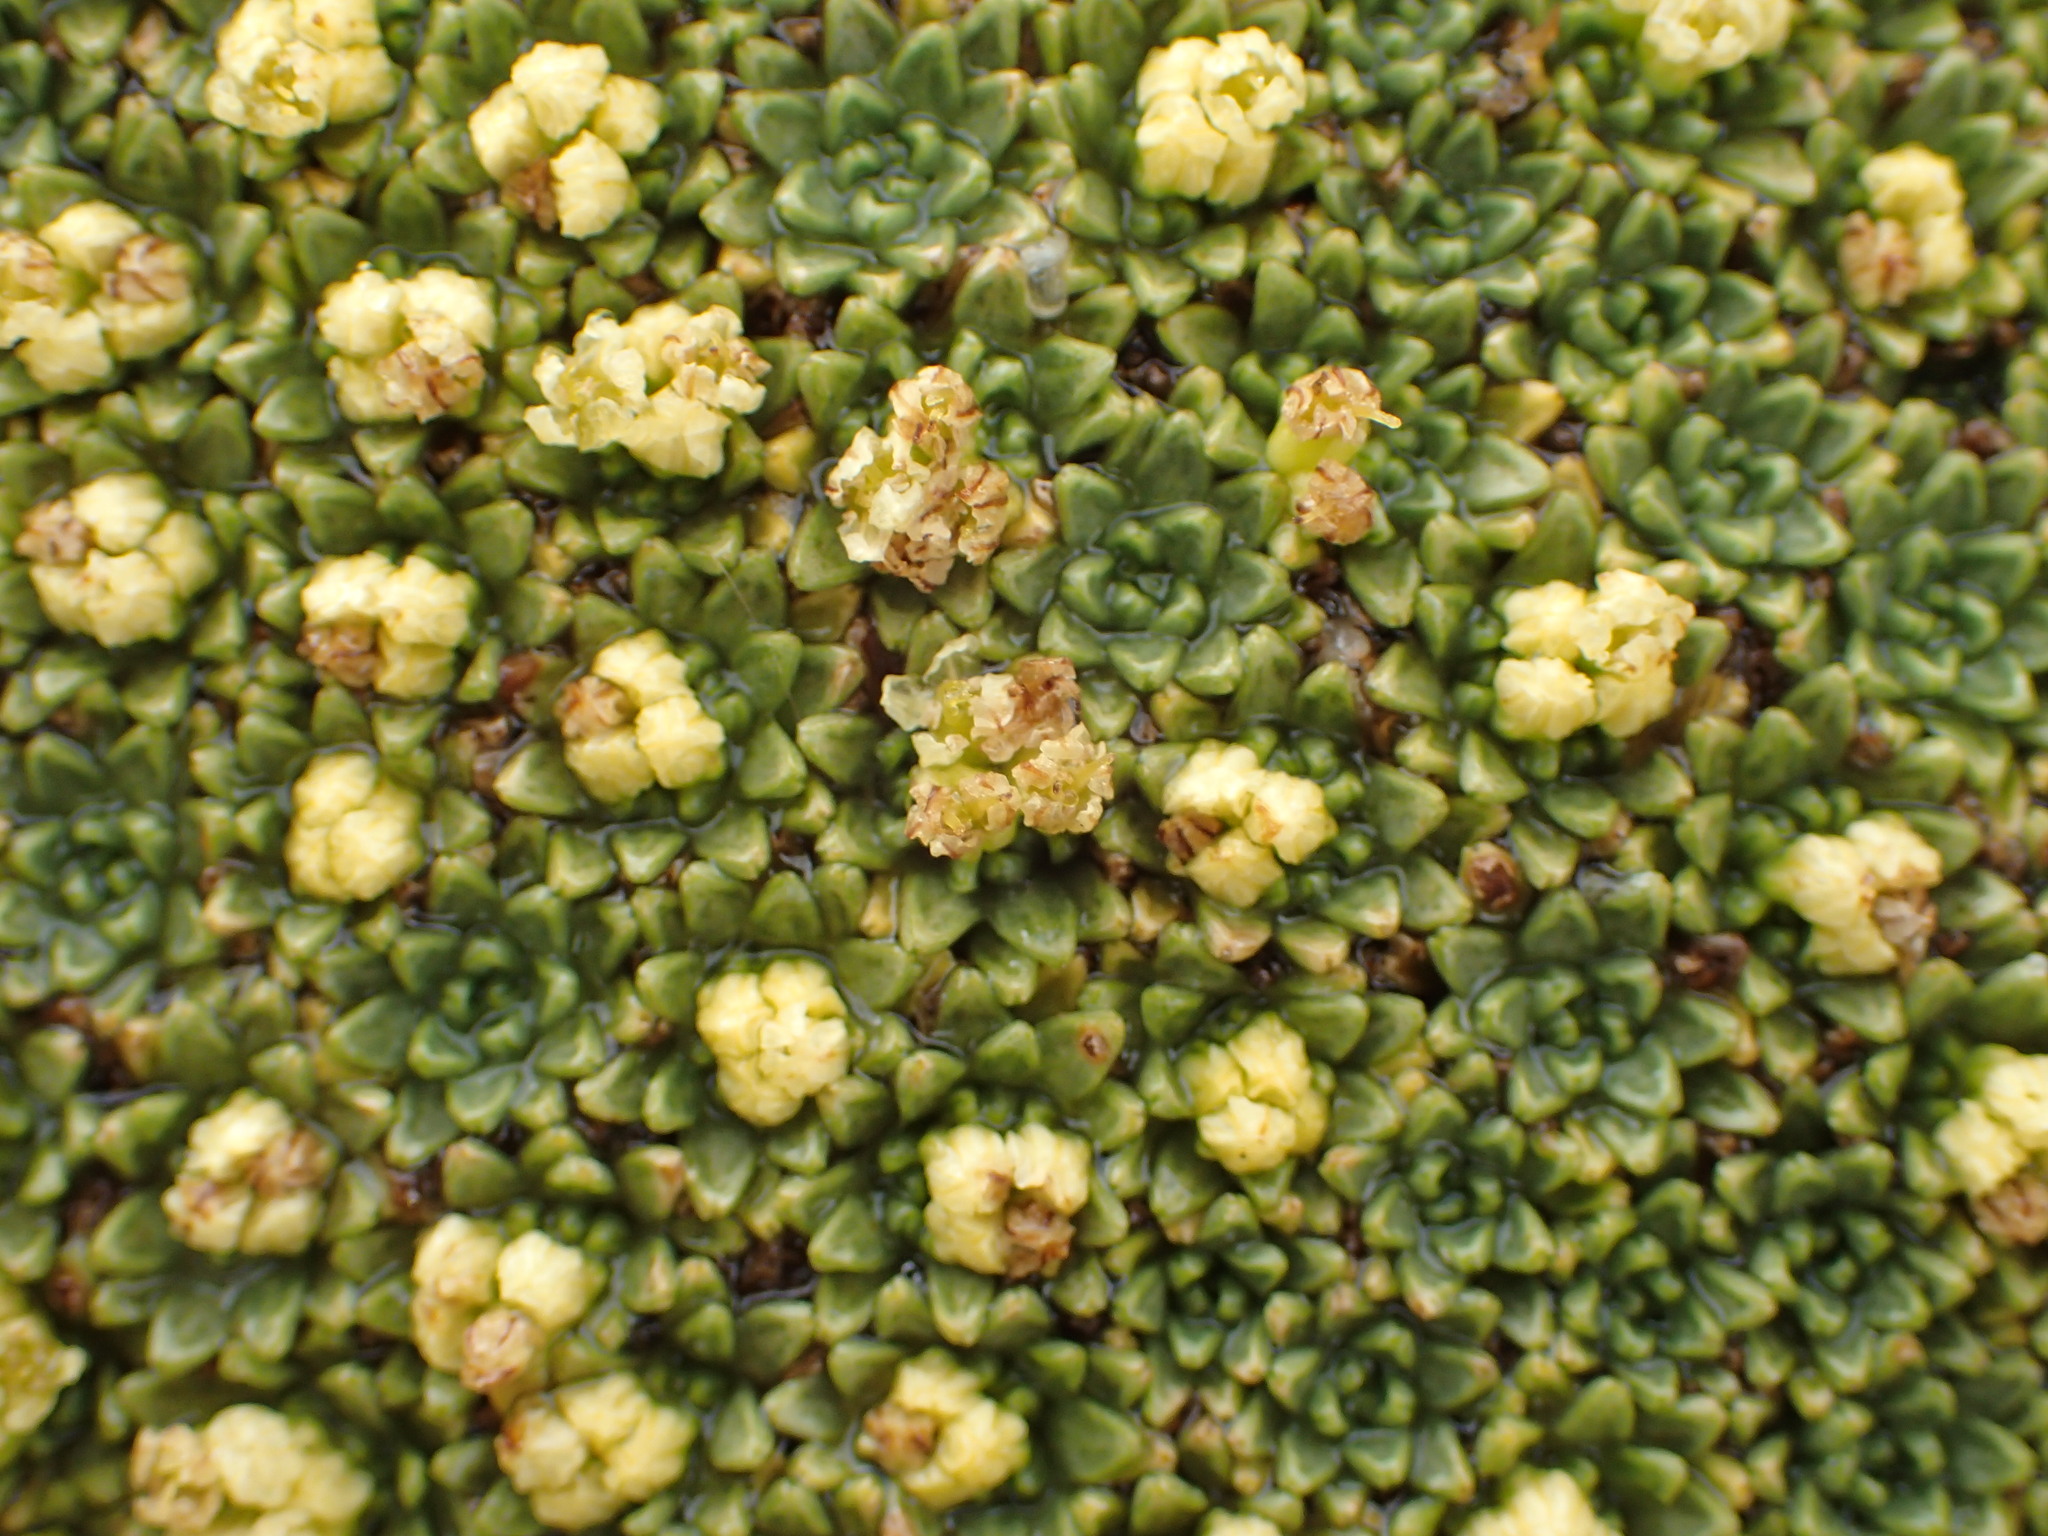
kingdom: Plantae
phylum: Tracheophyta
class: Magnoliopsida
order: Apiales
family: Apiaceae
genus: Azorella
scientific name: Azorella compacta
